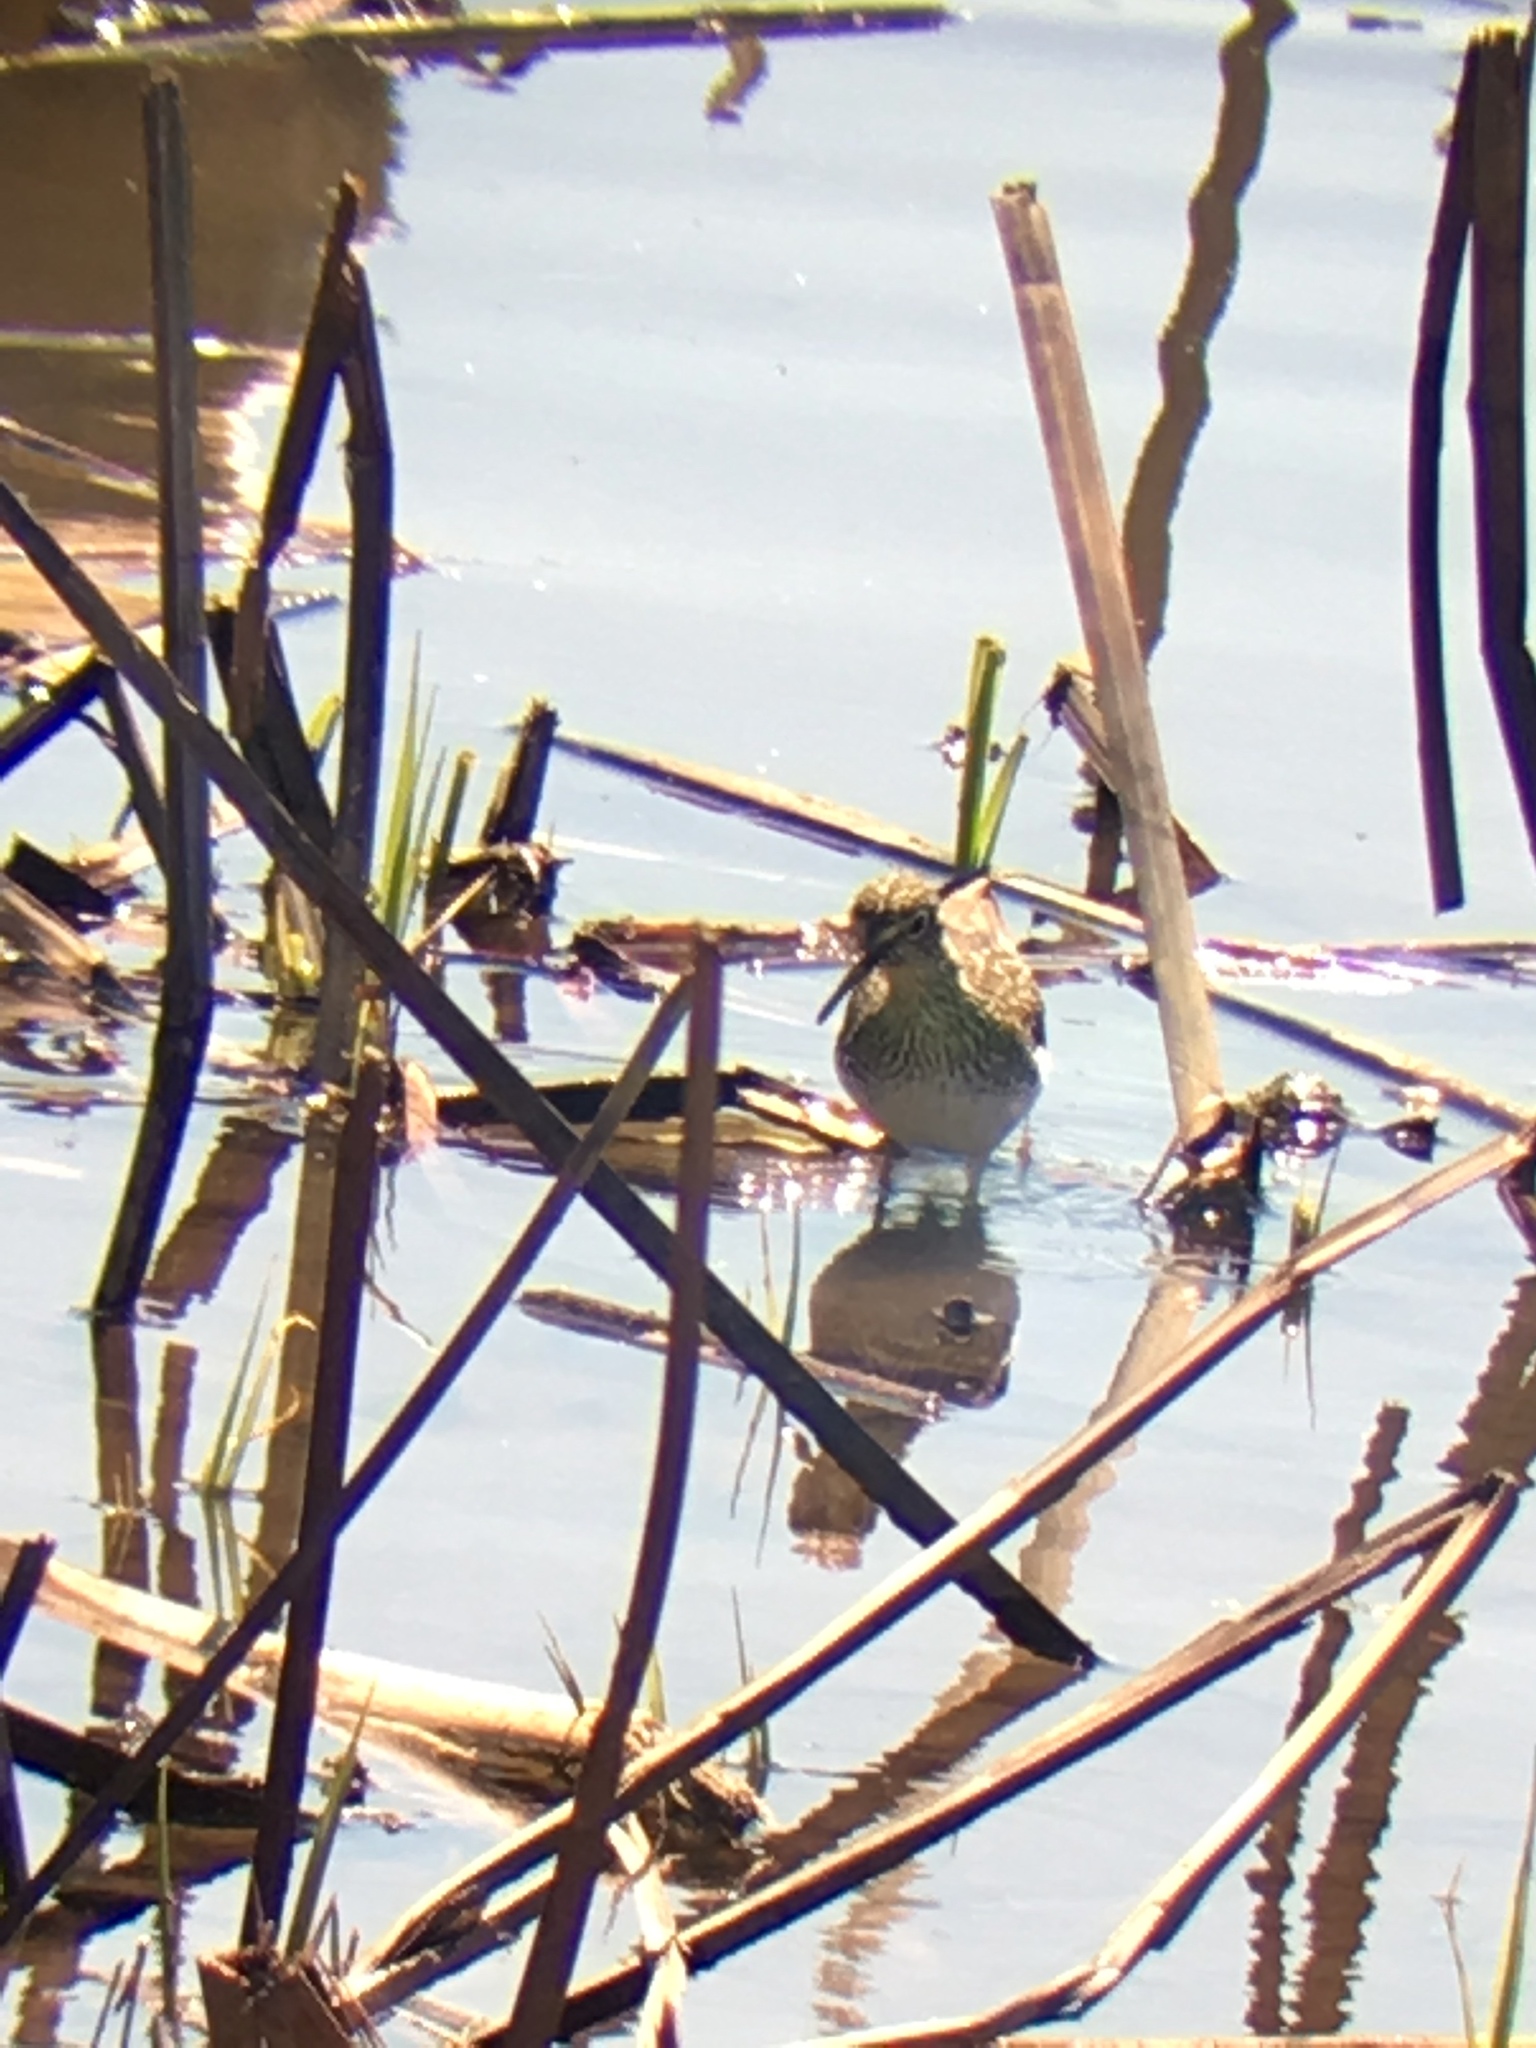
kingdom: Animalia
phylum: Chordata
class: Aves
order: Charadriiformes
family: Scolopacidae
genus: Tringa
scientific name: Tringa solitaria
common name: Solitary sandpiper
